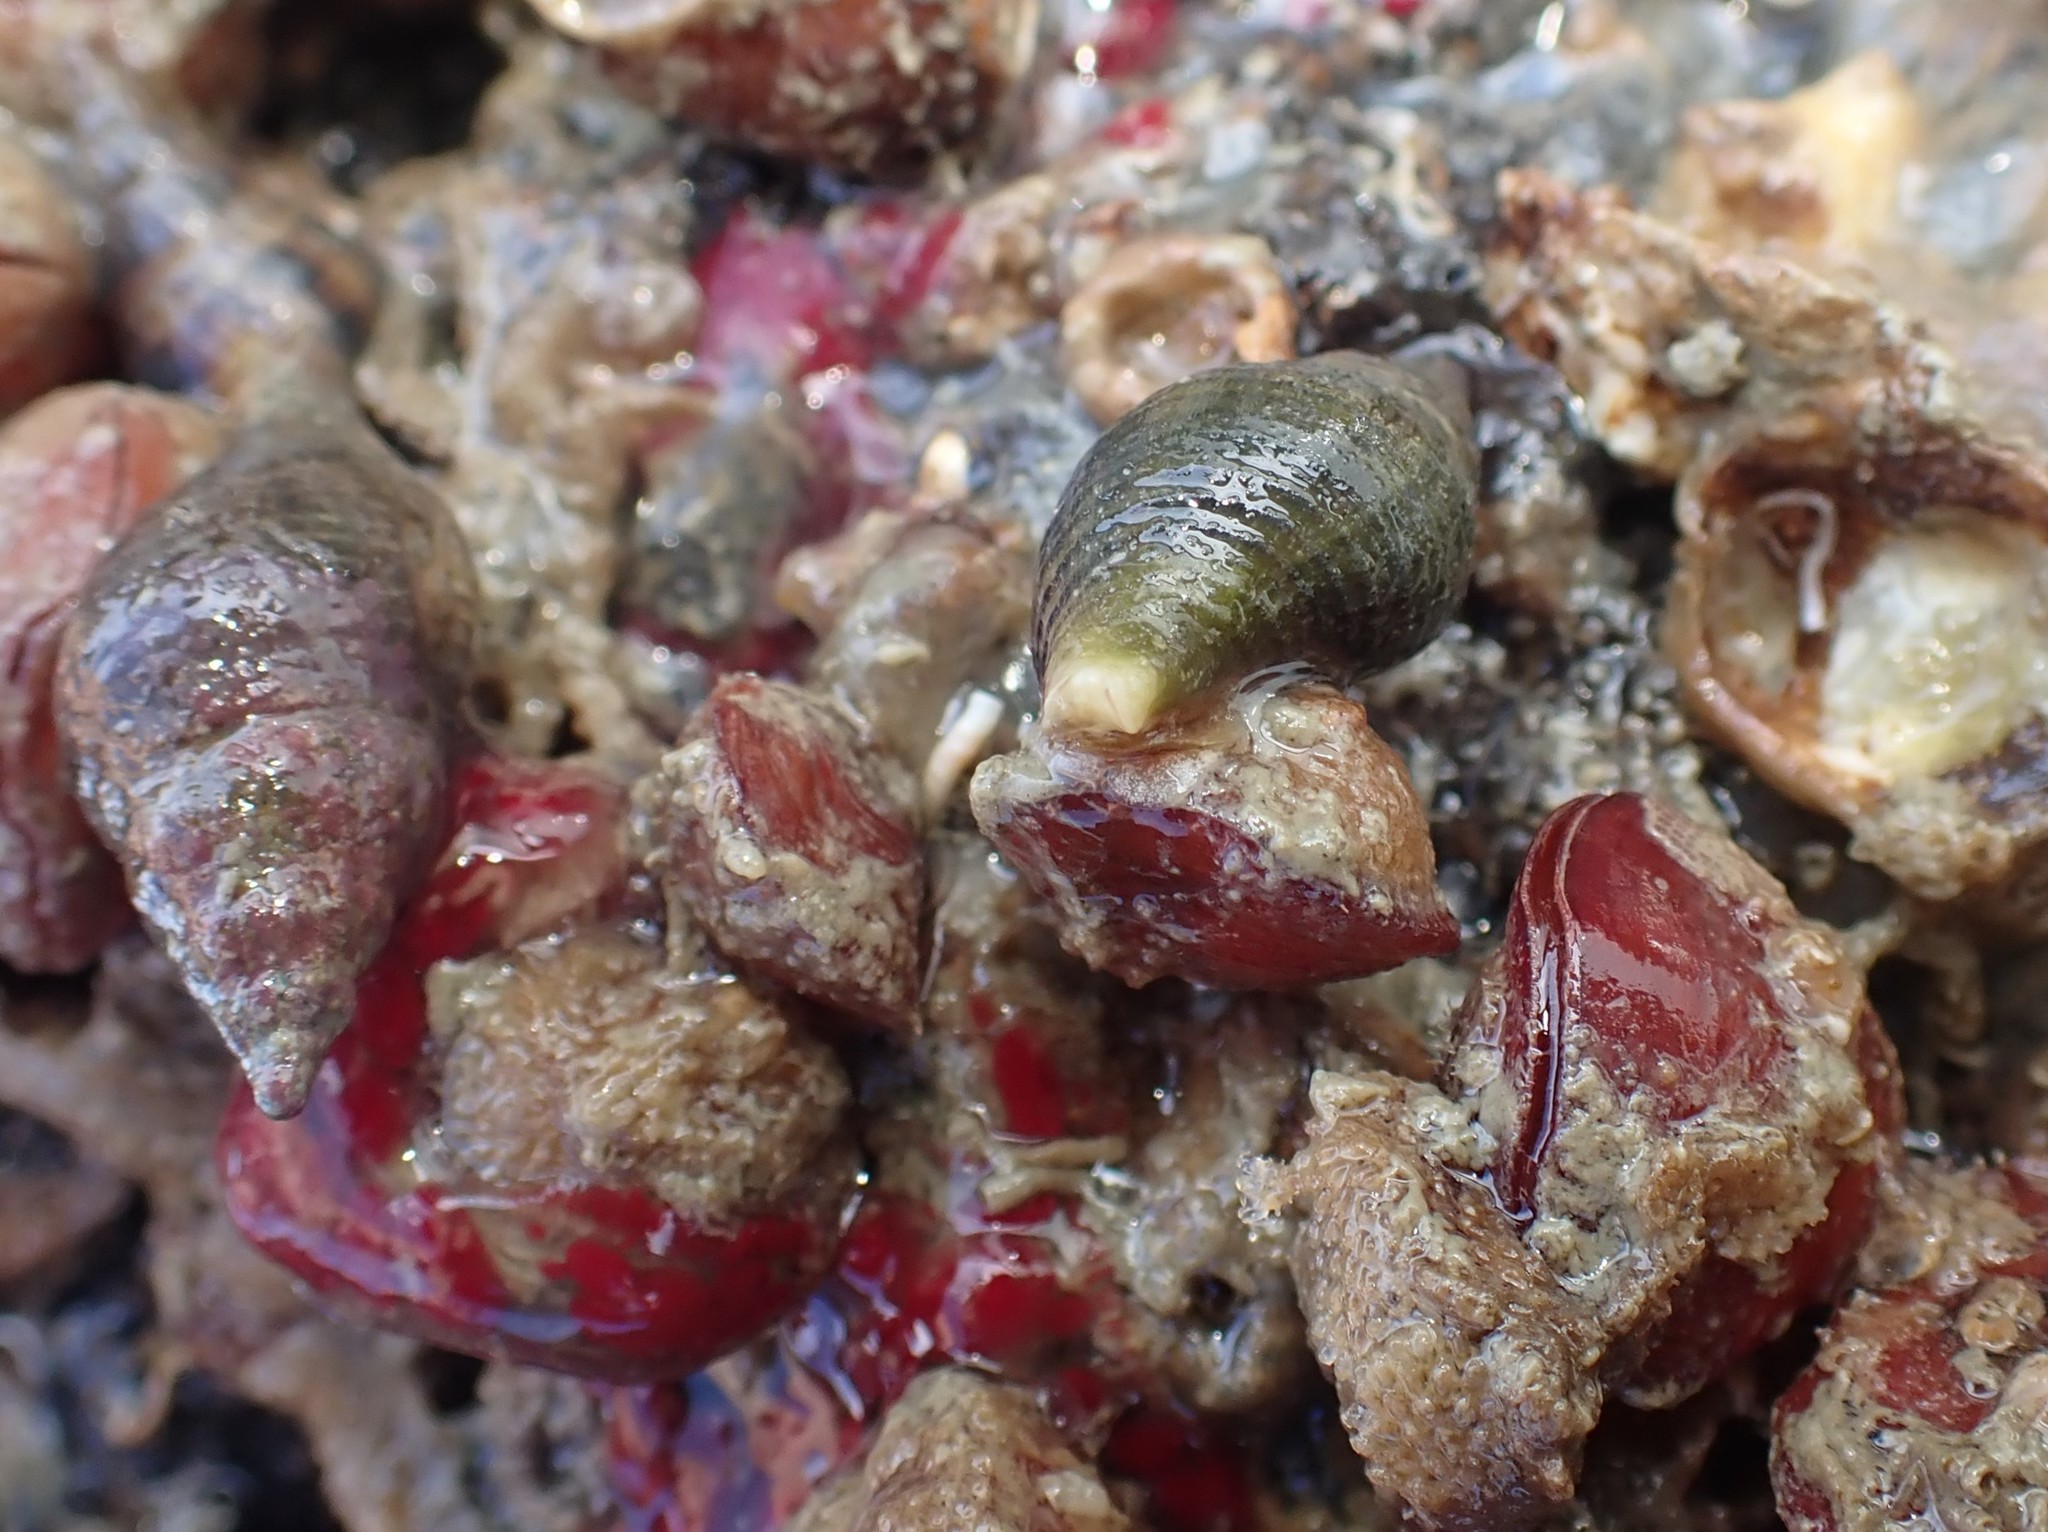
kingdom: Animalia
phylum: Mollusca
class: Gastropoda
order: Neogastropoda
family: Tudiclidae
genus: Buccinulum
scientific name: Buccinulum vittatum
